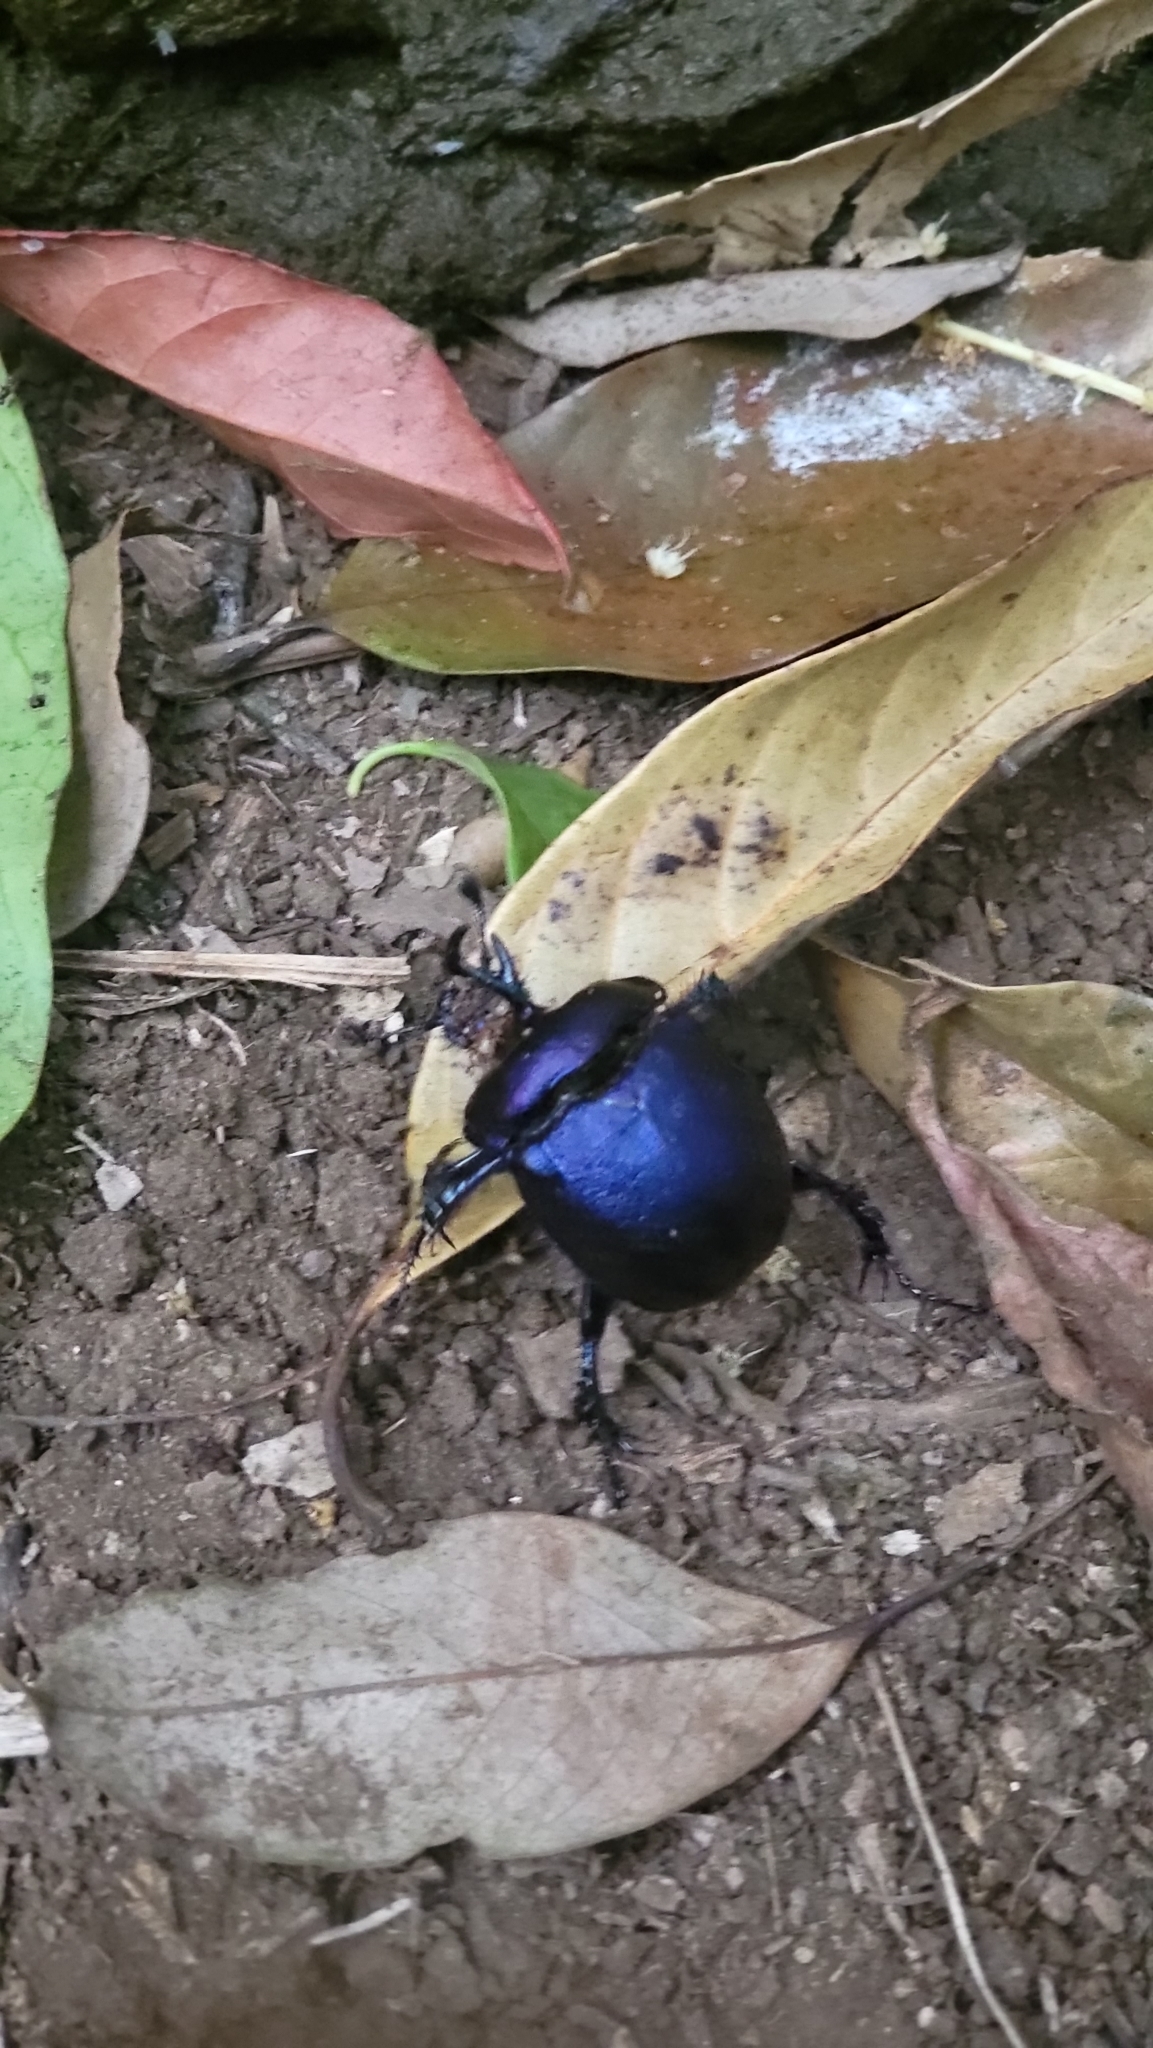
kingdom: Animalia
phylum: Arthropoda
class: Insecta
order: Coleoptera
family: Geotrupidae
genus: Enoplotrupes
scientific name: Enoplotrupes sharpi
